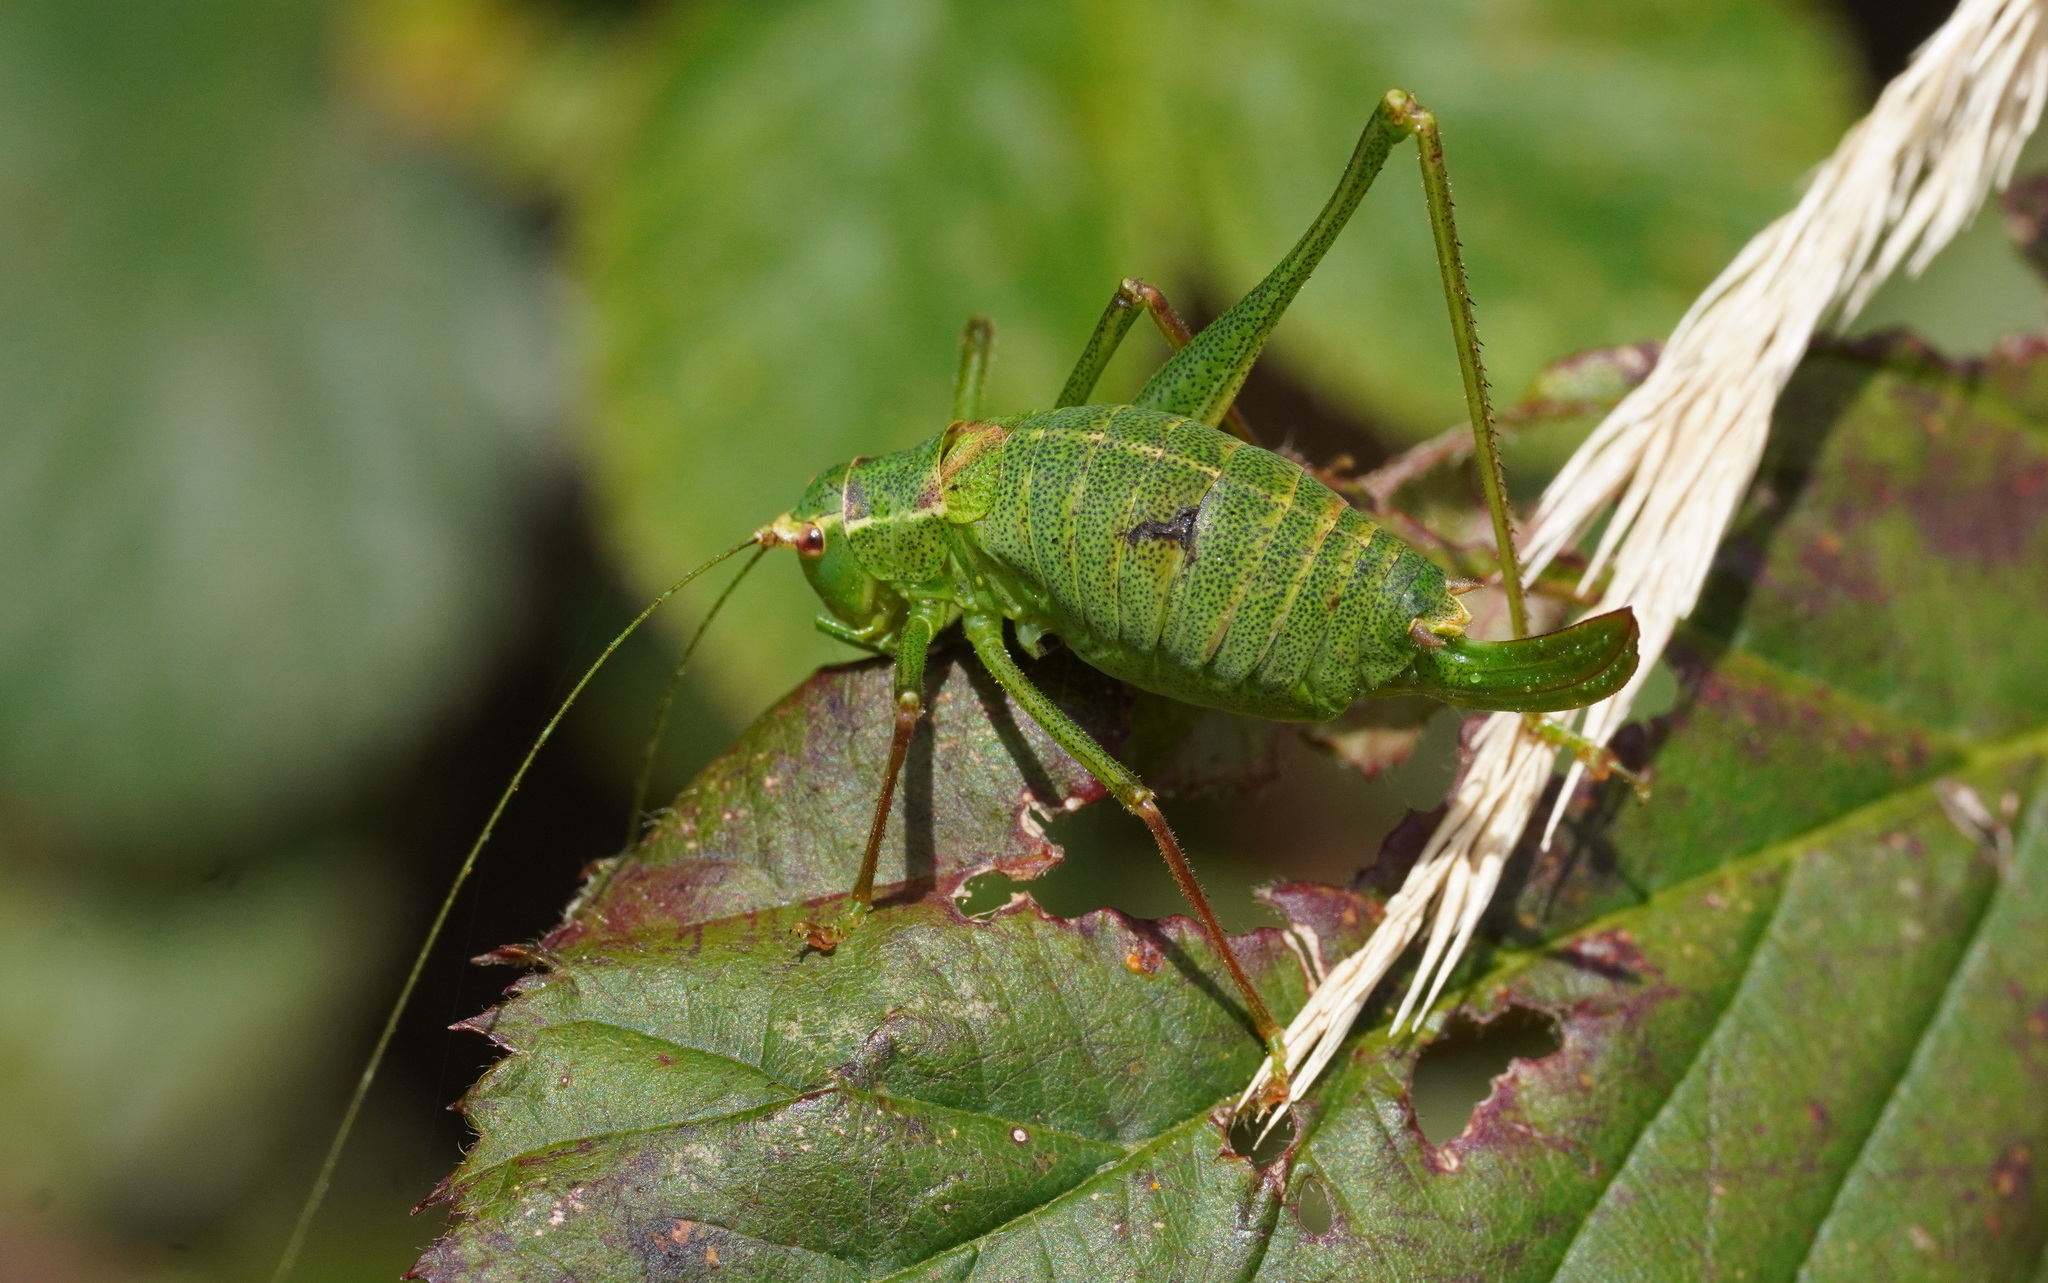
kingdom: Animalia
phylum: Arthropoda
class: Insecta
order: Orthoptera
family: Tettigoniidae
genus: Leptophyes
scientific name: Leptophyes punctatissima
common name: Speckled bush-cricket
